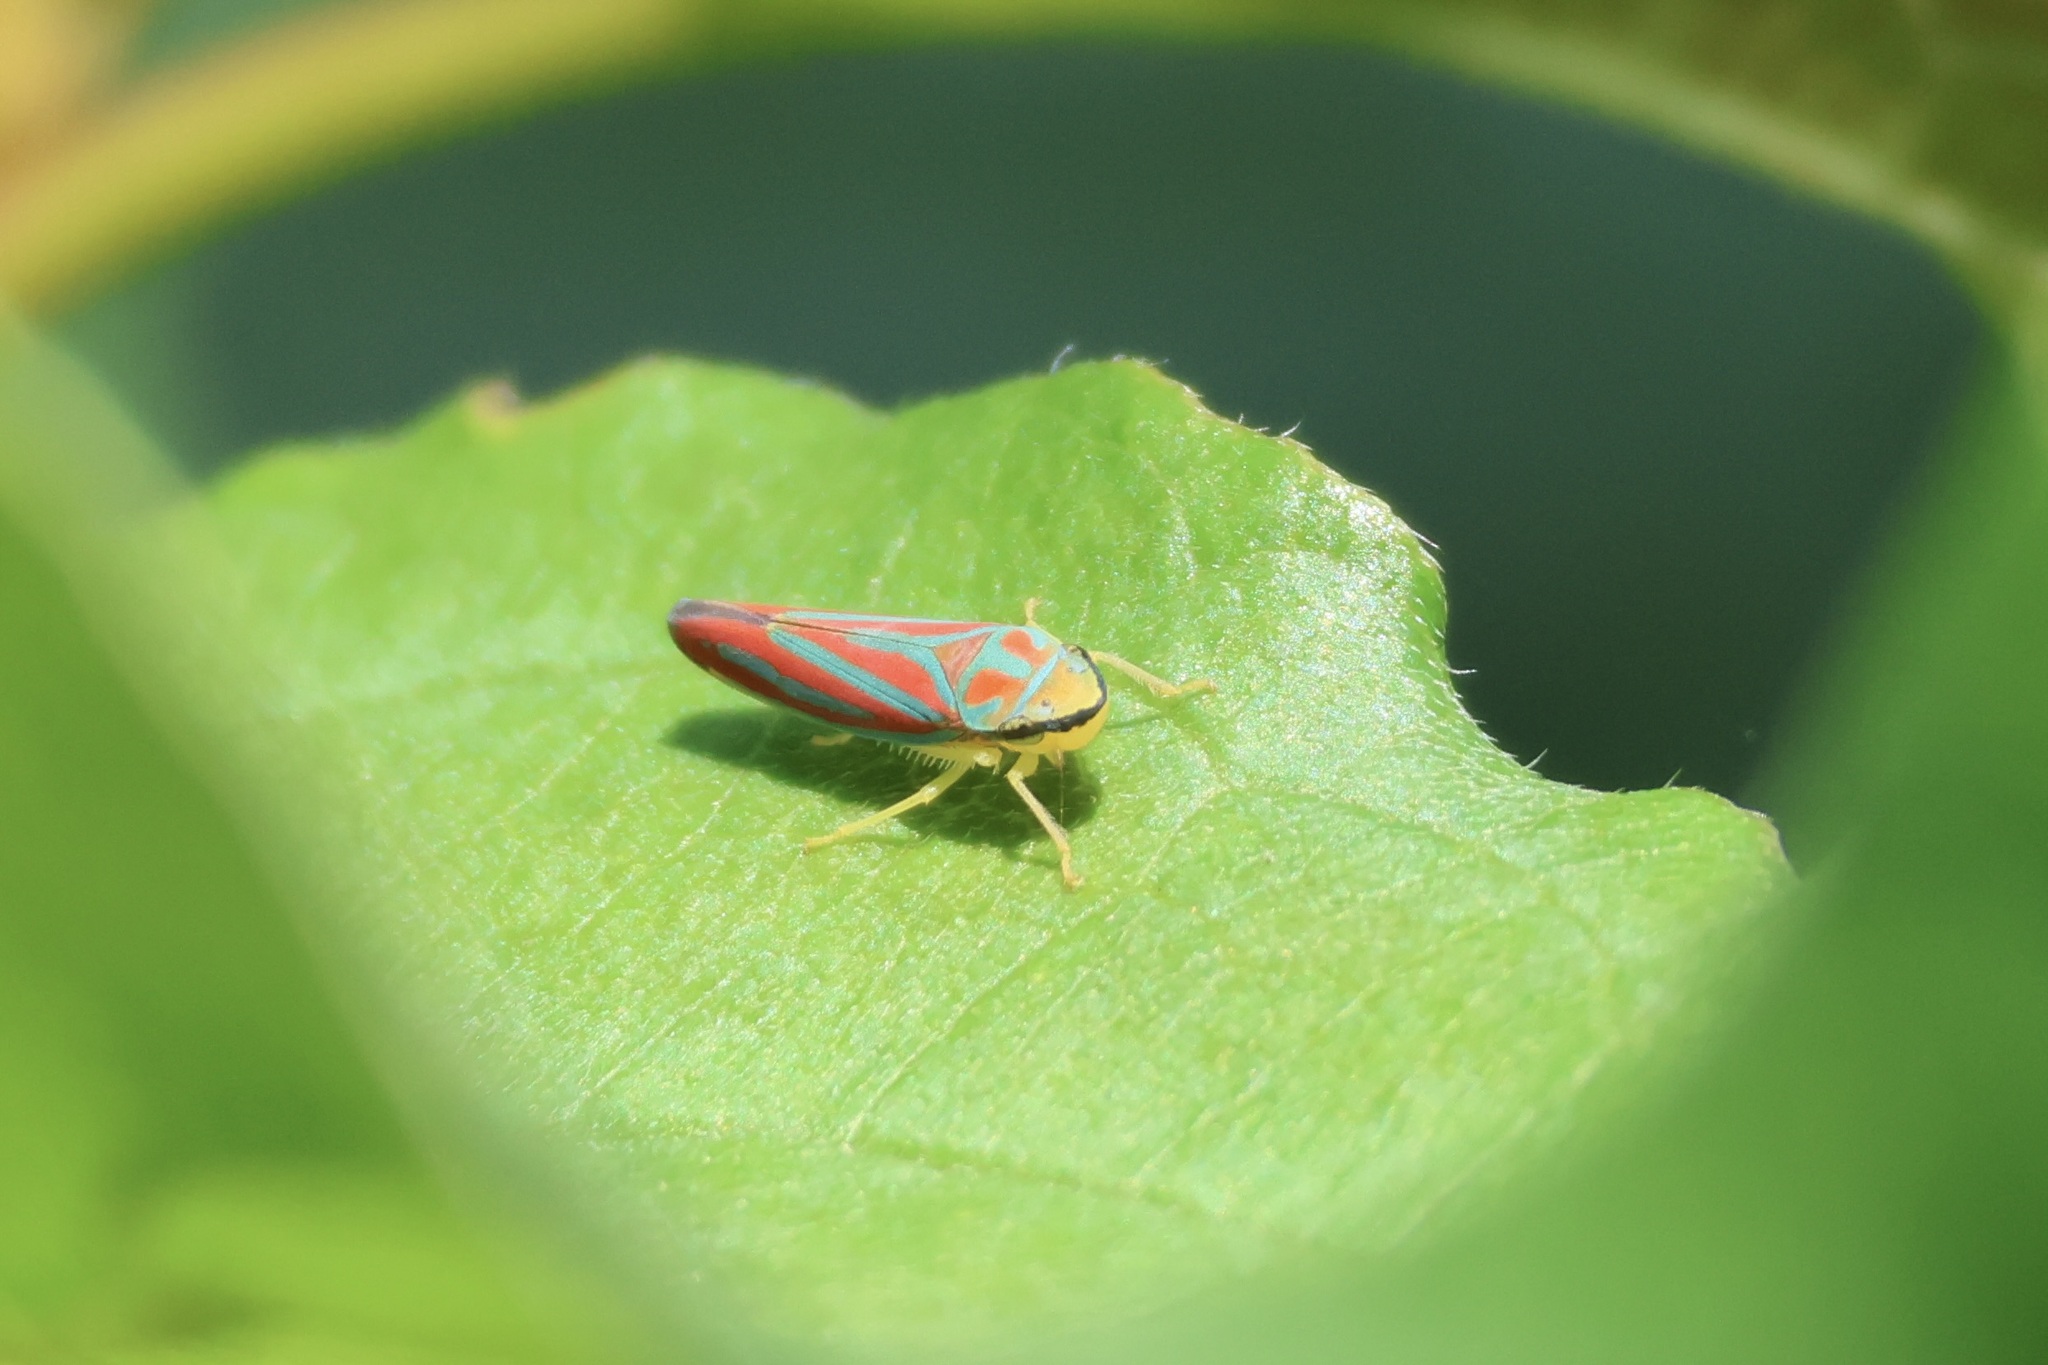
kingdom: Animalia
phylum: Arthropoda
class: Insecta
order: Hemiptera
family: Cicadellidae
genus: Graphocephala
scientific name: Graphocephala coccinea
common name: Candy-striped leafhopper
